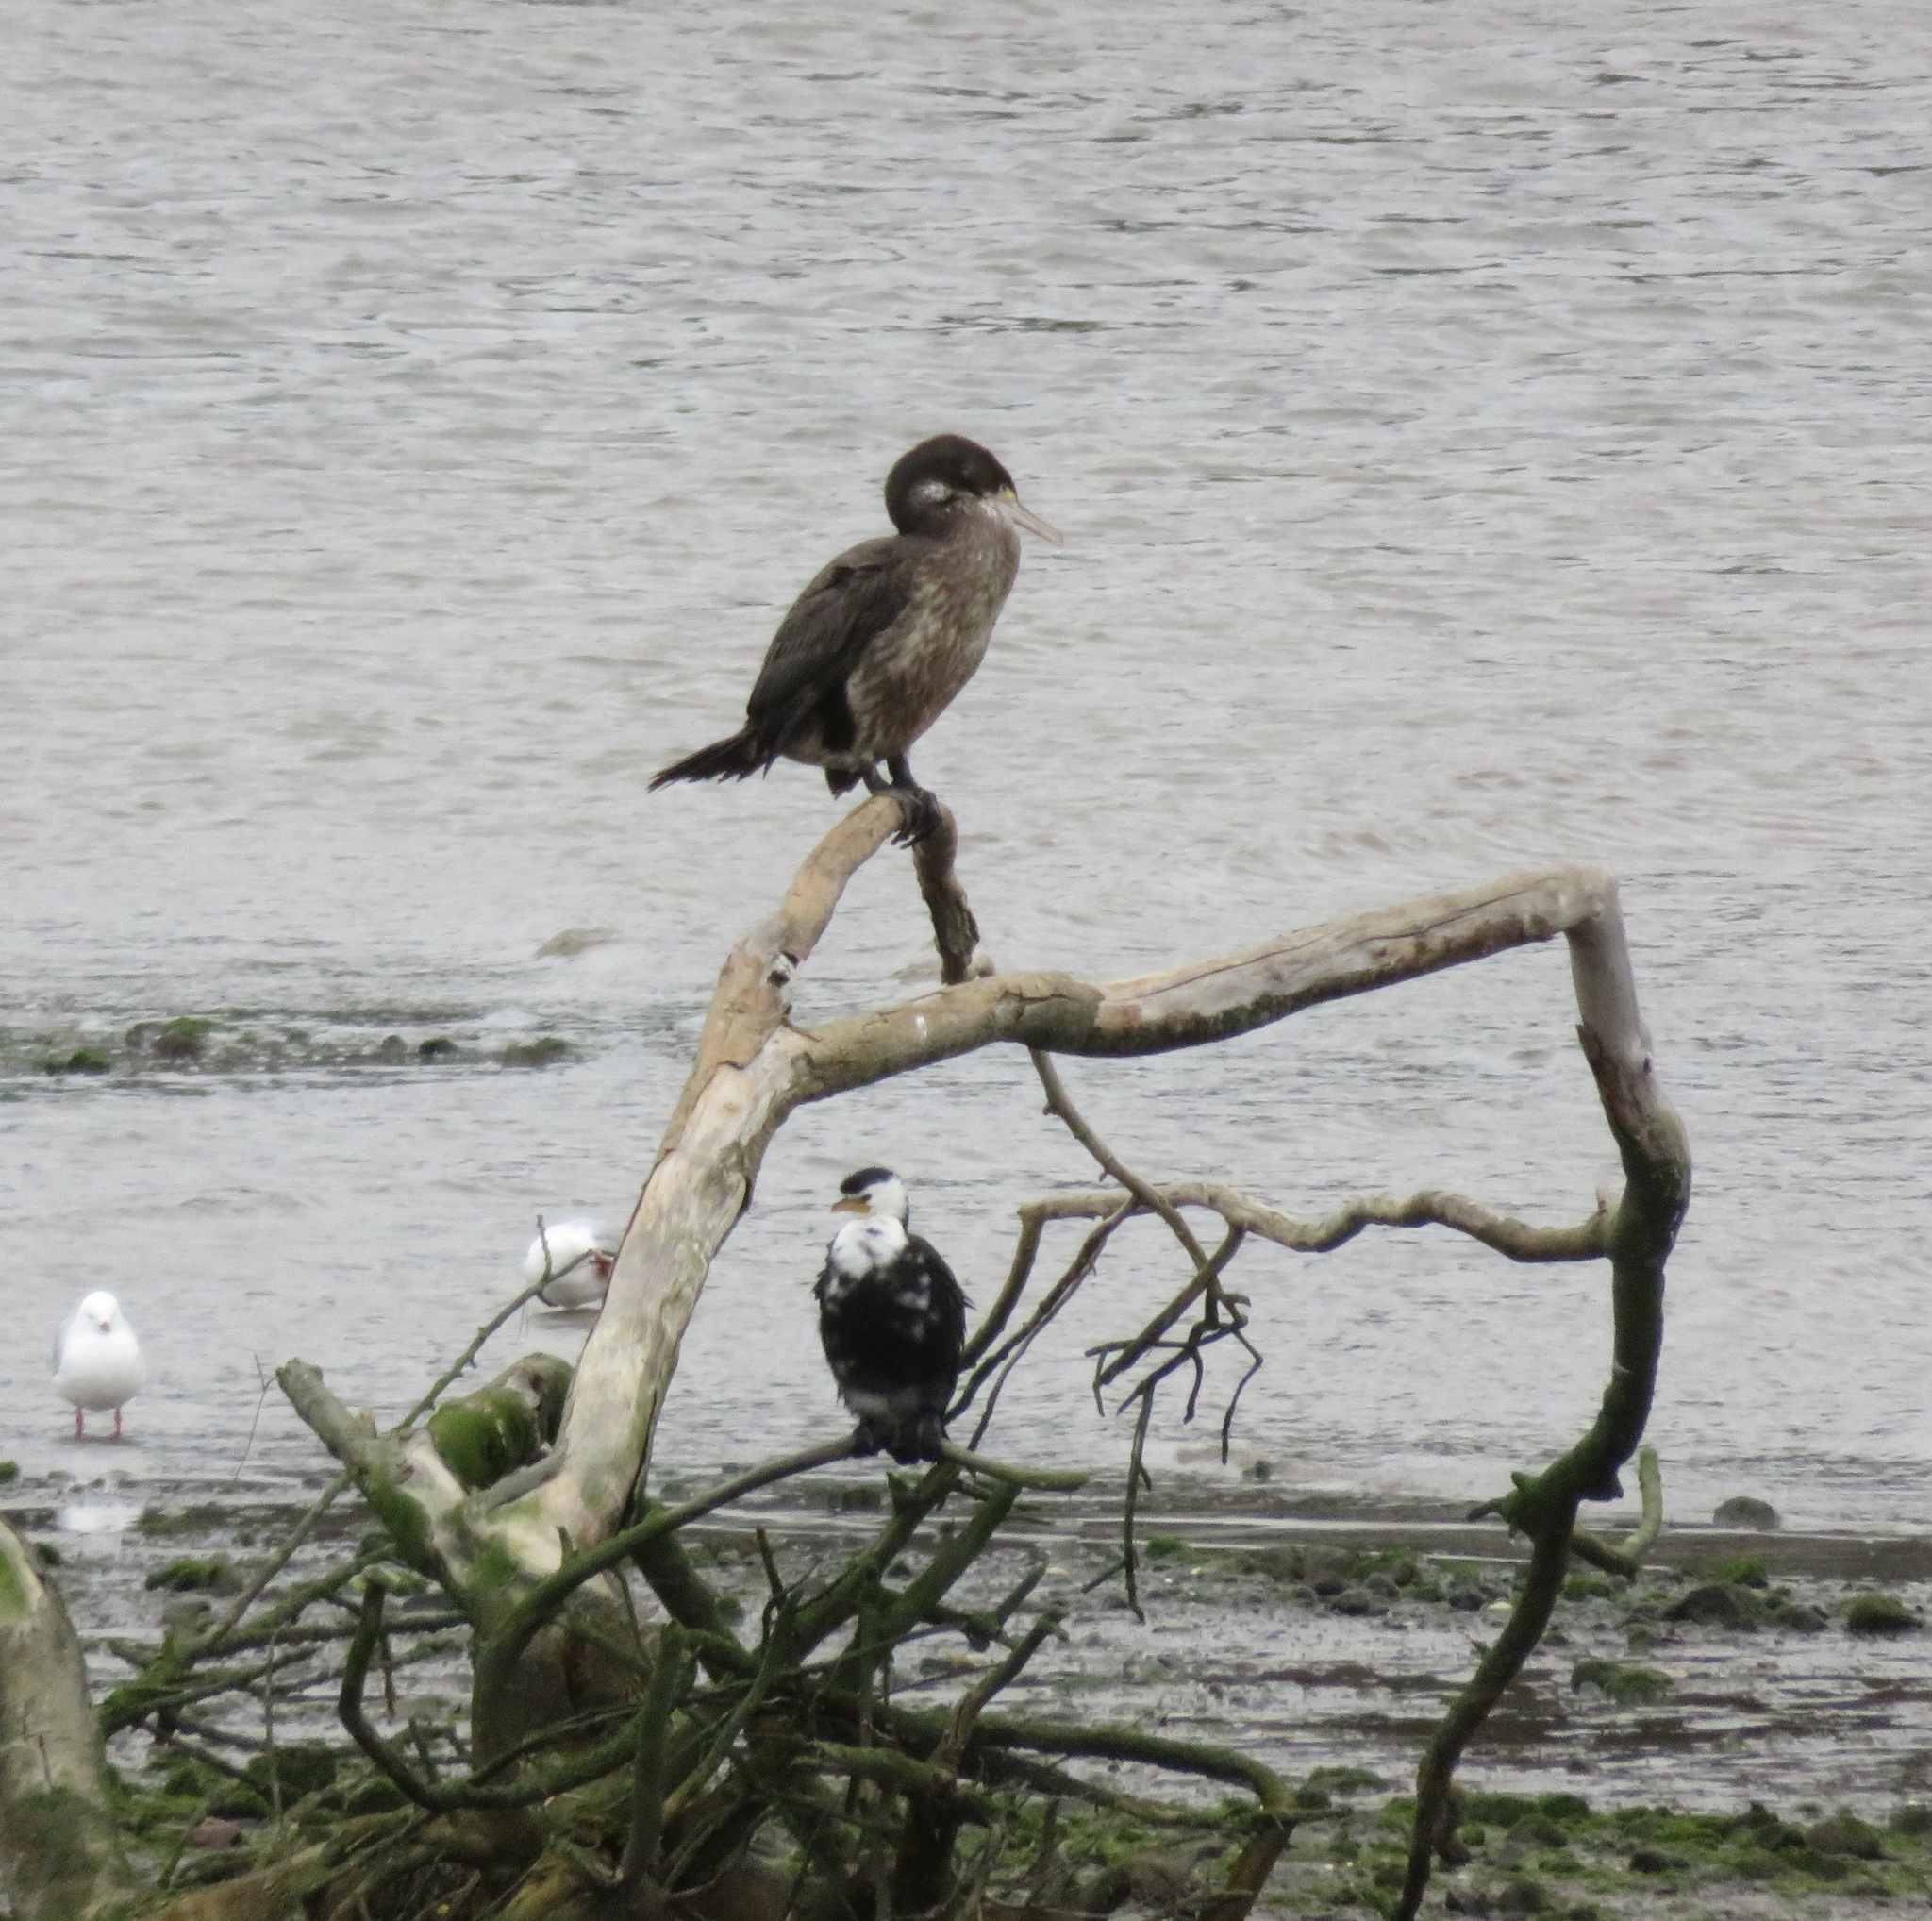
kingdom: Animalia
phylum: Chordata
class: Aves
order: Suliformes
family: Phalacrocoracidae
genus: Microcarbo
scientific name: Microcarbo melanoleucos
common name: Little pied cormorant
